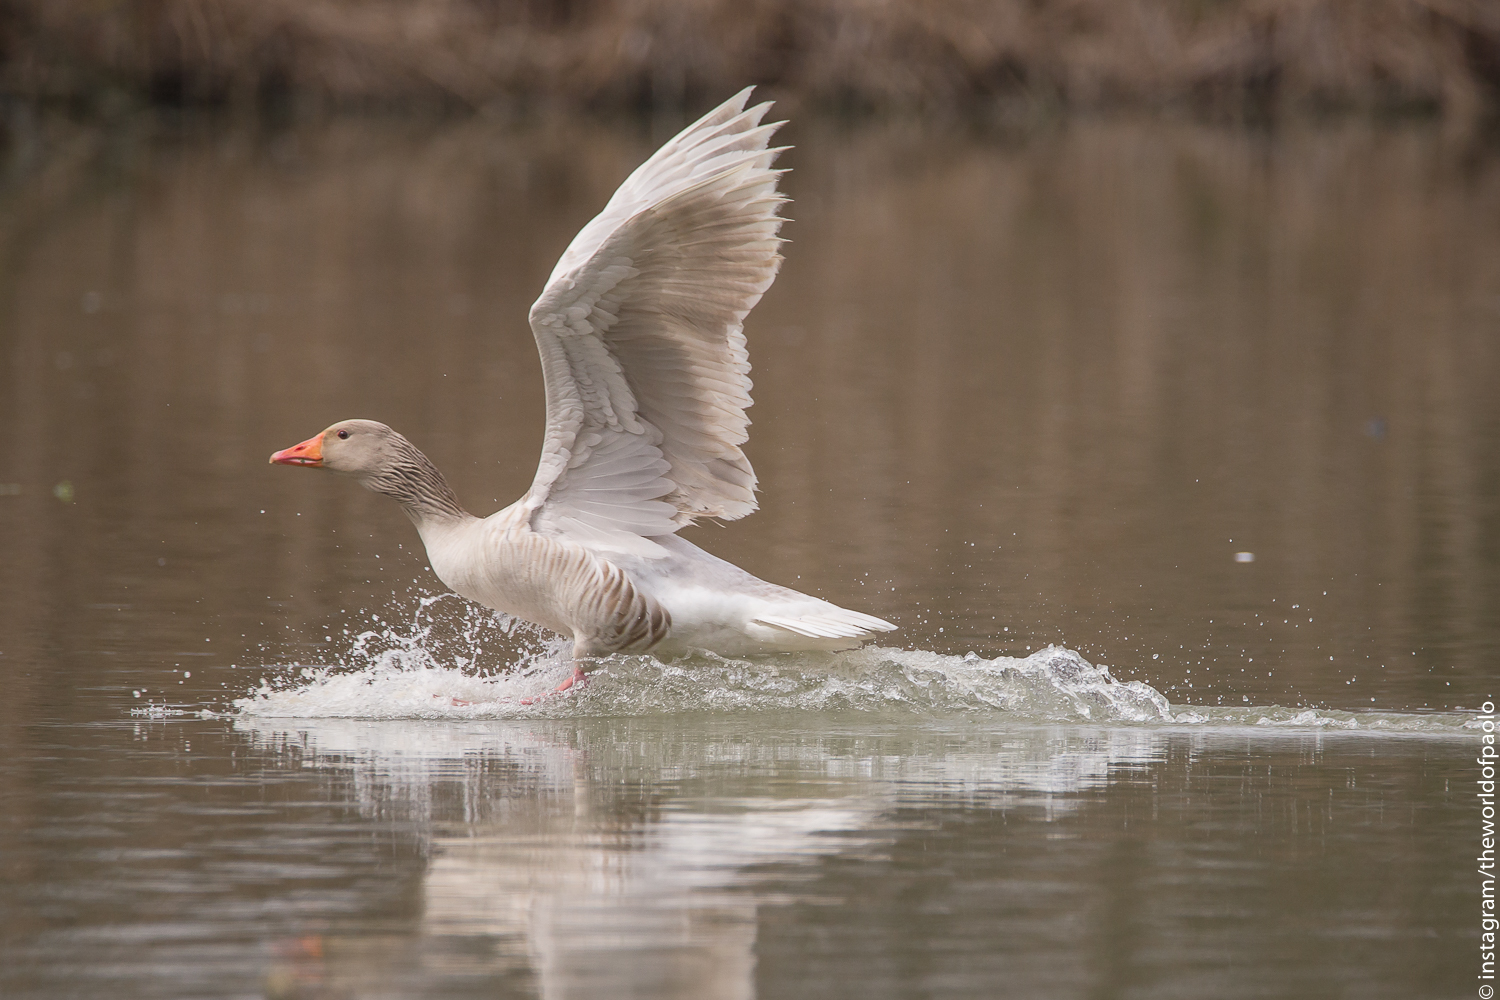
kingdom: Animalia
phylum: Chordata
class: Aves
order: Anseriformes
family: Anatidae
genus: Anser
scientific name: Anser anser
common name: Greylag goose
